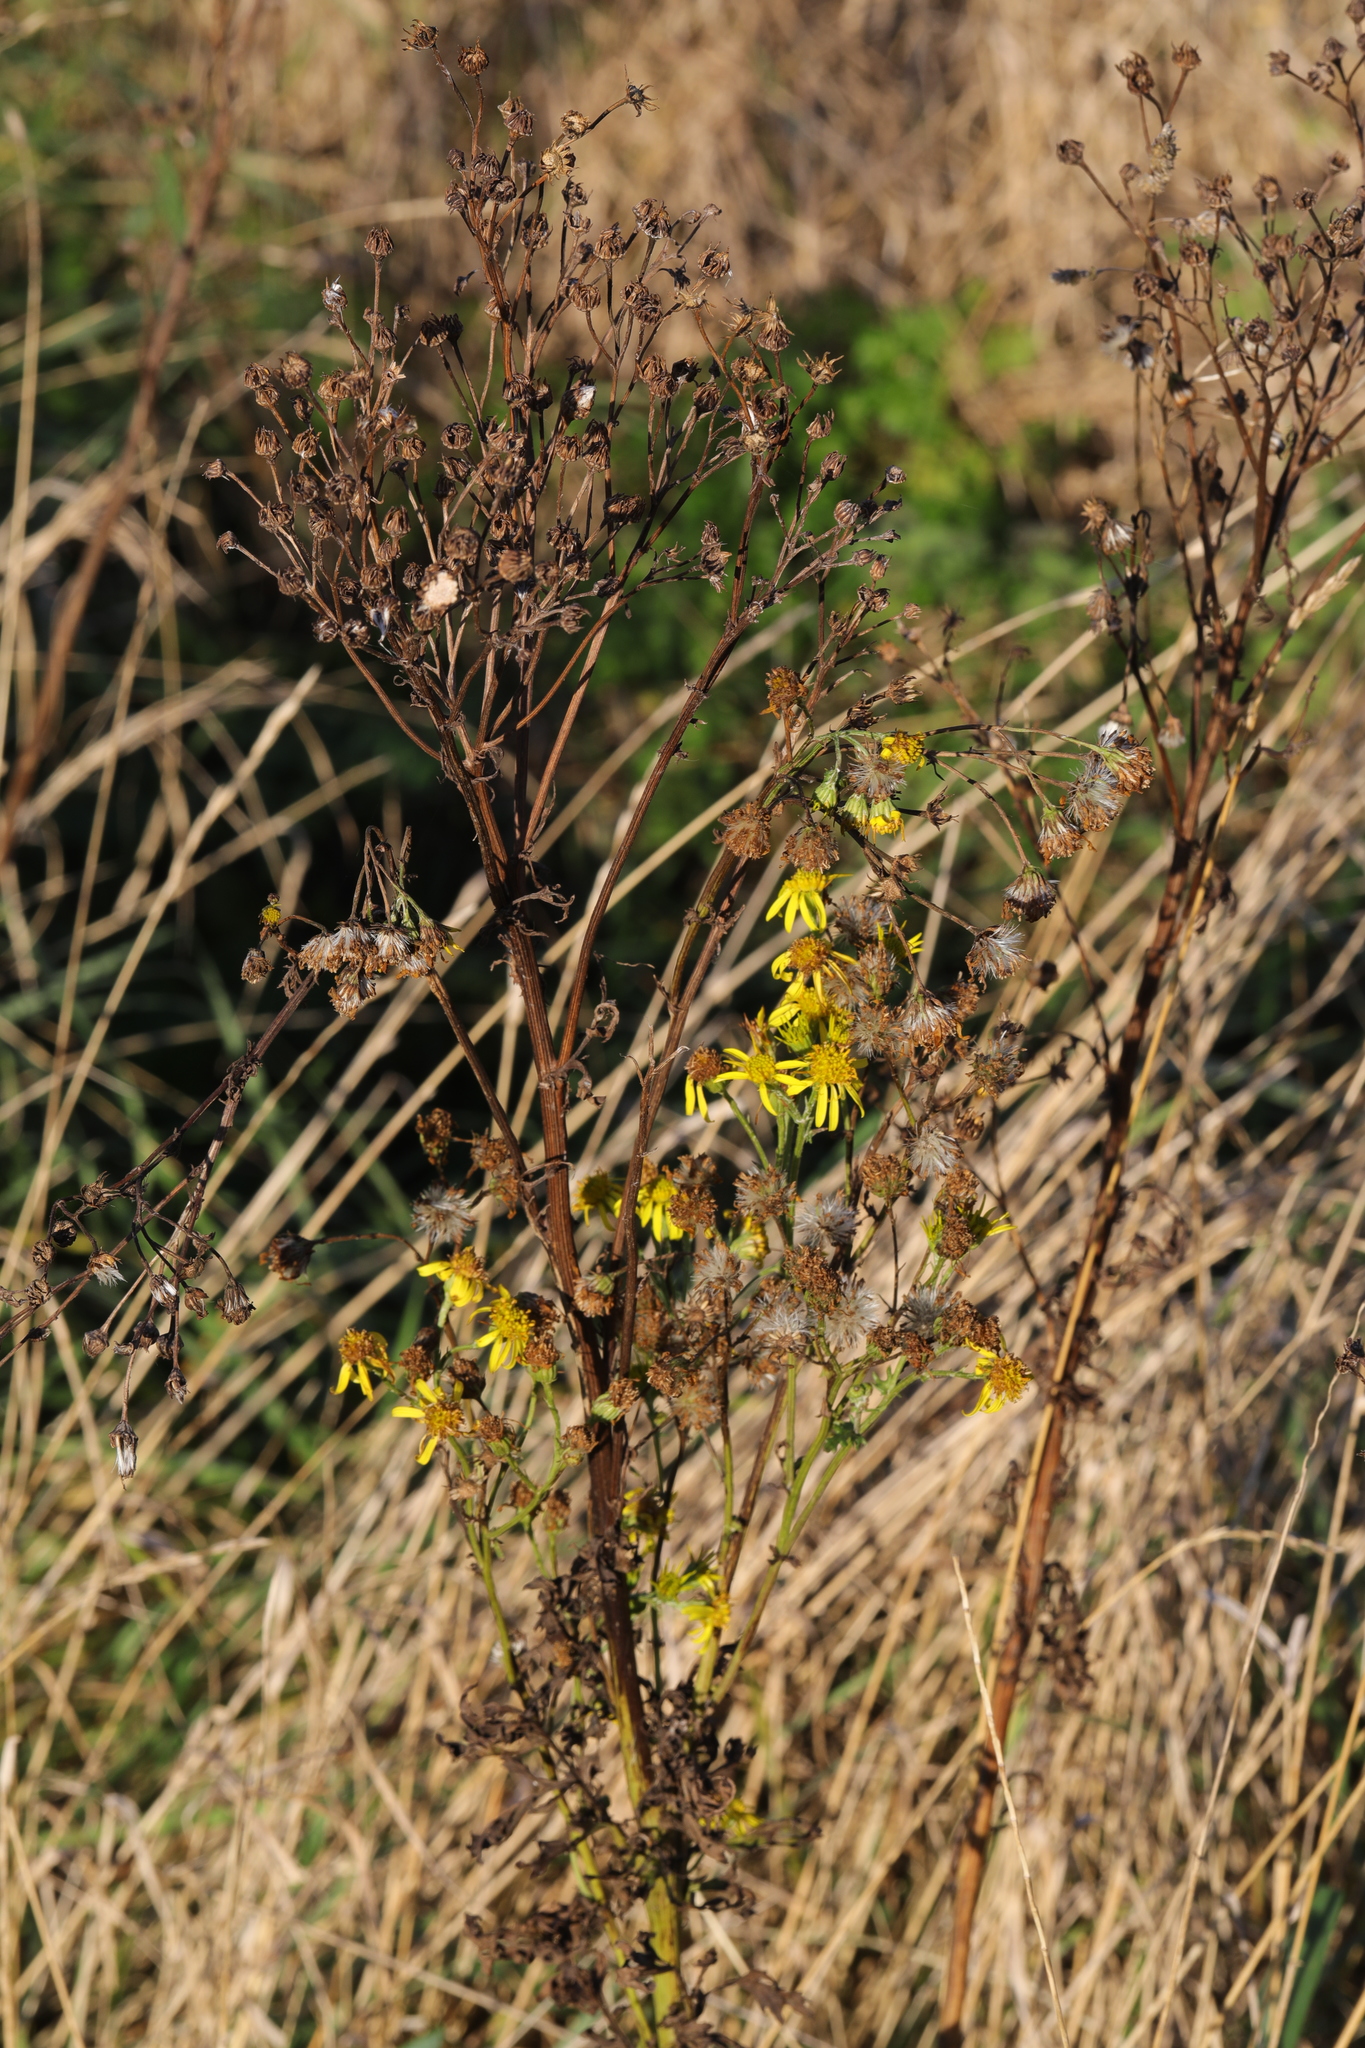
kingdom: Plantae
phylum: Tracheophyta
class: Magnoliopsida
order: Asterales
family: Asteraceae
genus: Jacobaea
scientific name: Jacobaea vulgaris
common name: Stinking willie
